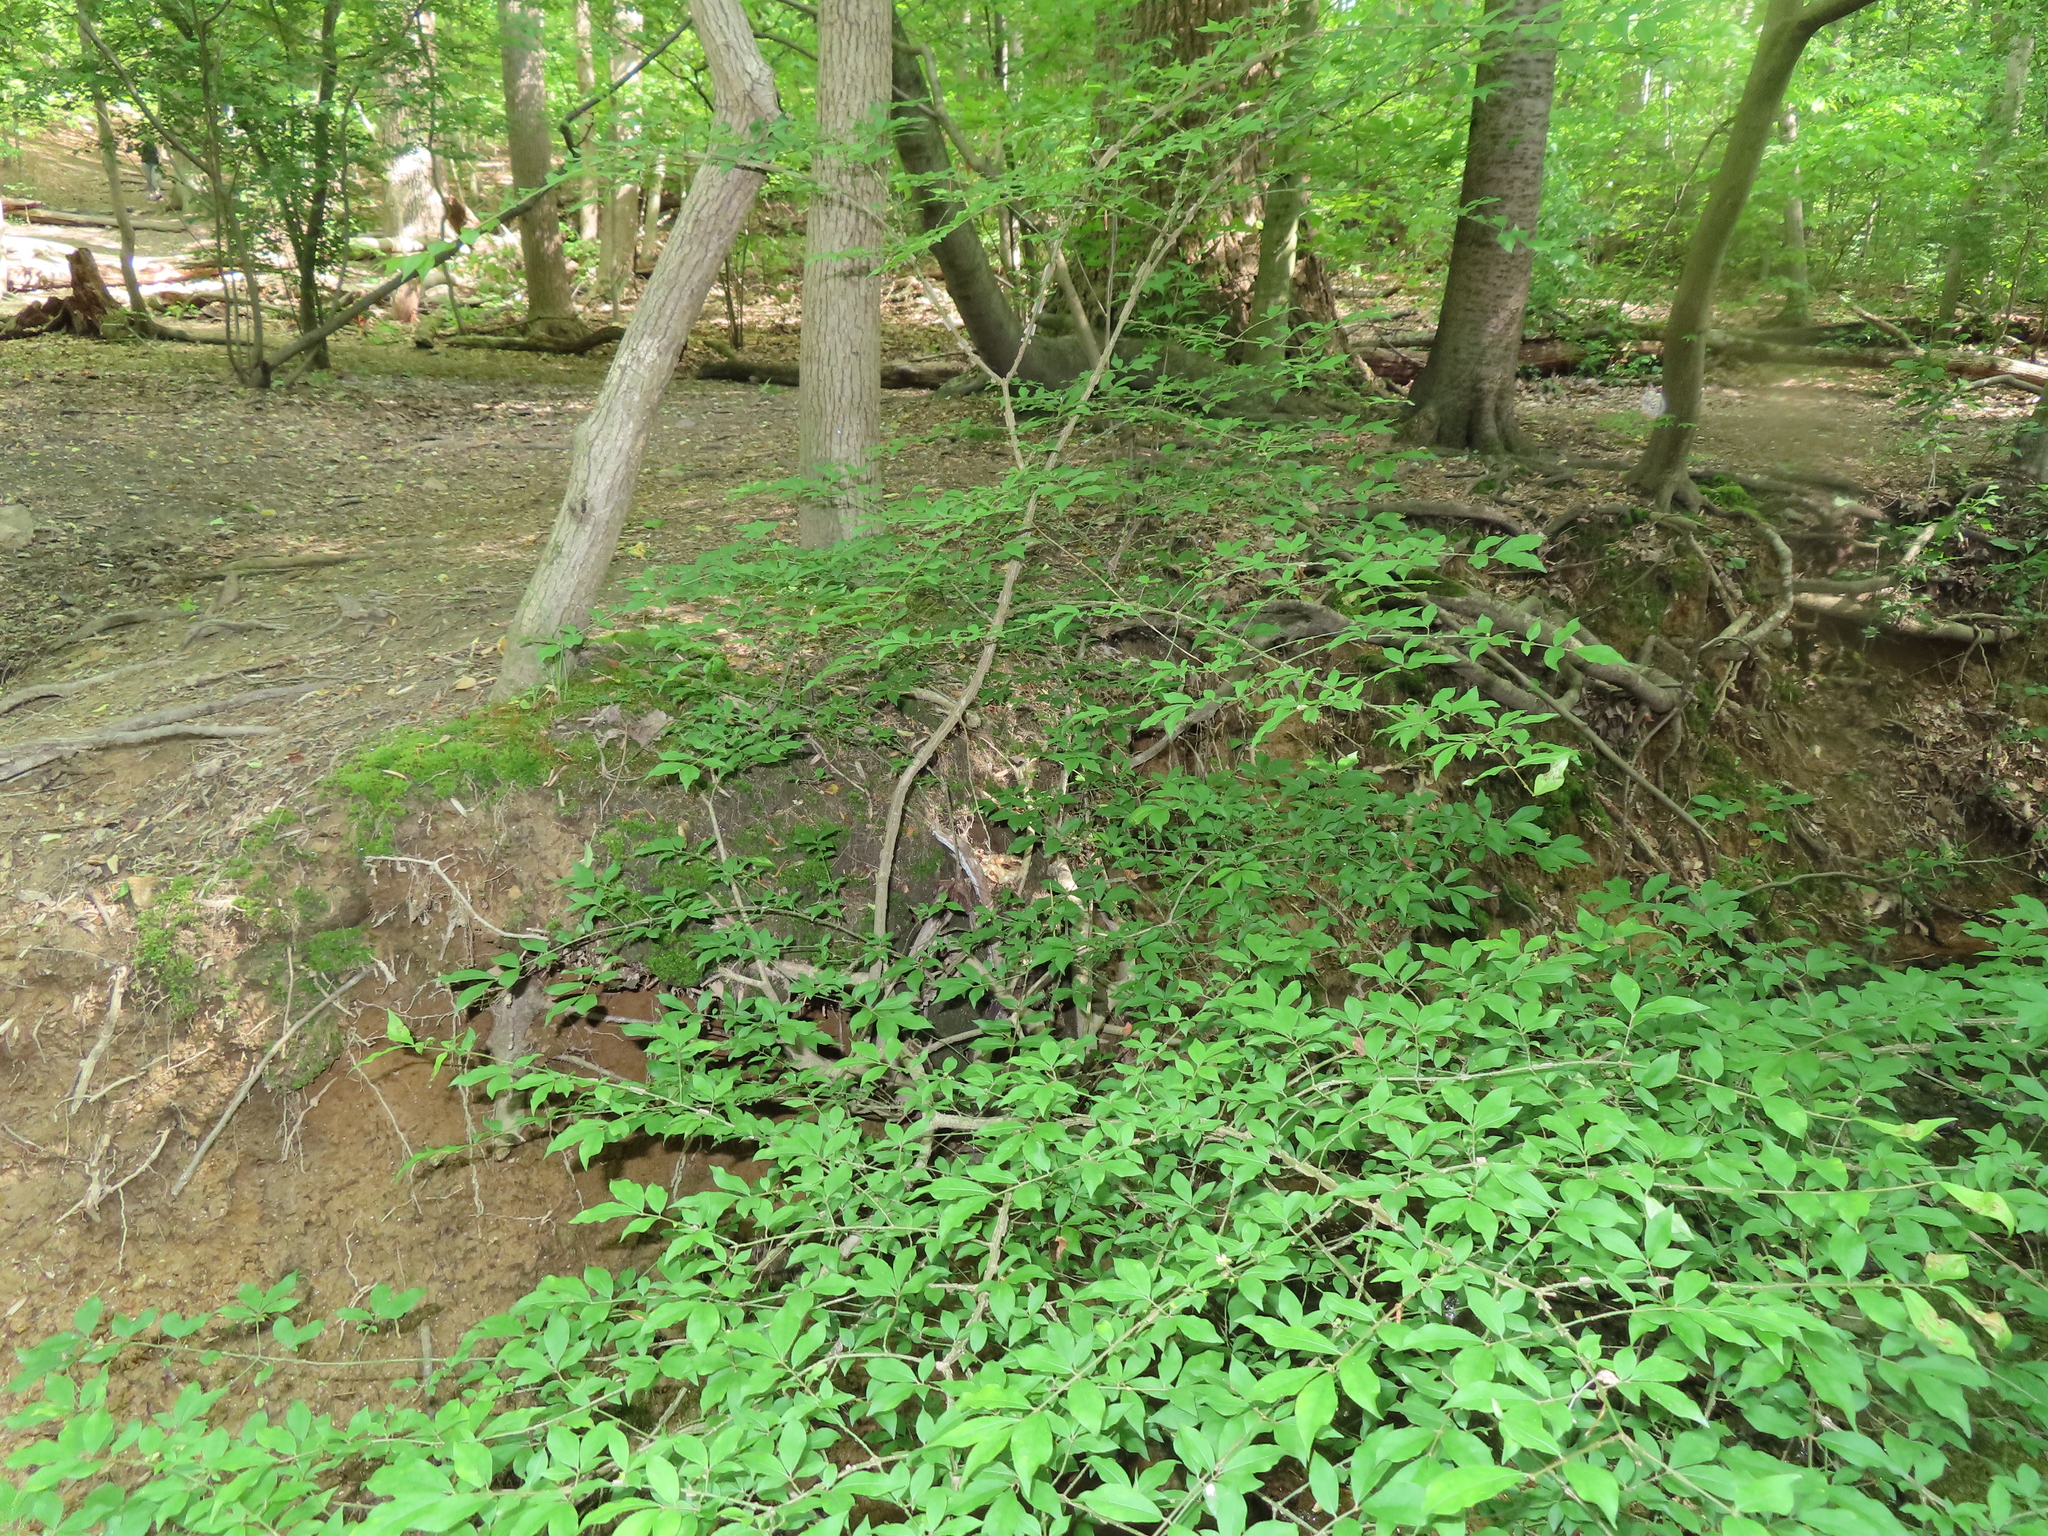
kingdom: Plantae
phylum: Tracheophyta
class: Magnoliopsida
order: Celastrales
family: Celastraceae
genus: Euonymus
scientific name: Euonymus alatus
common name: Winged euonymus
